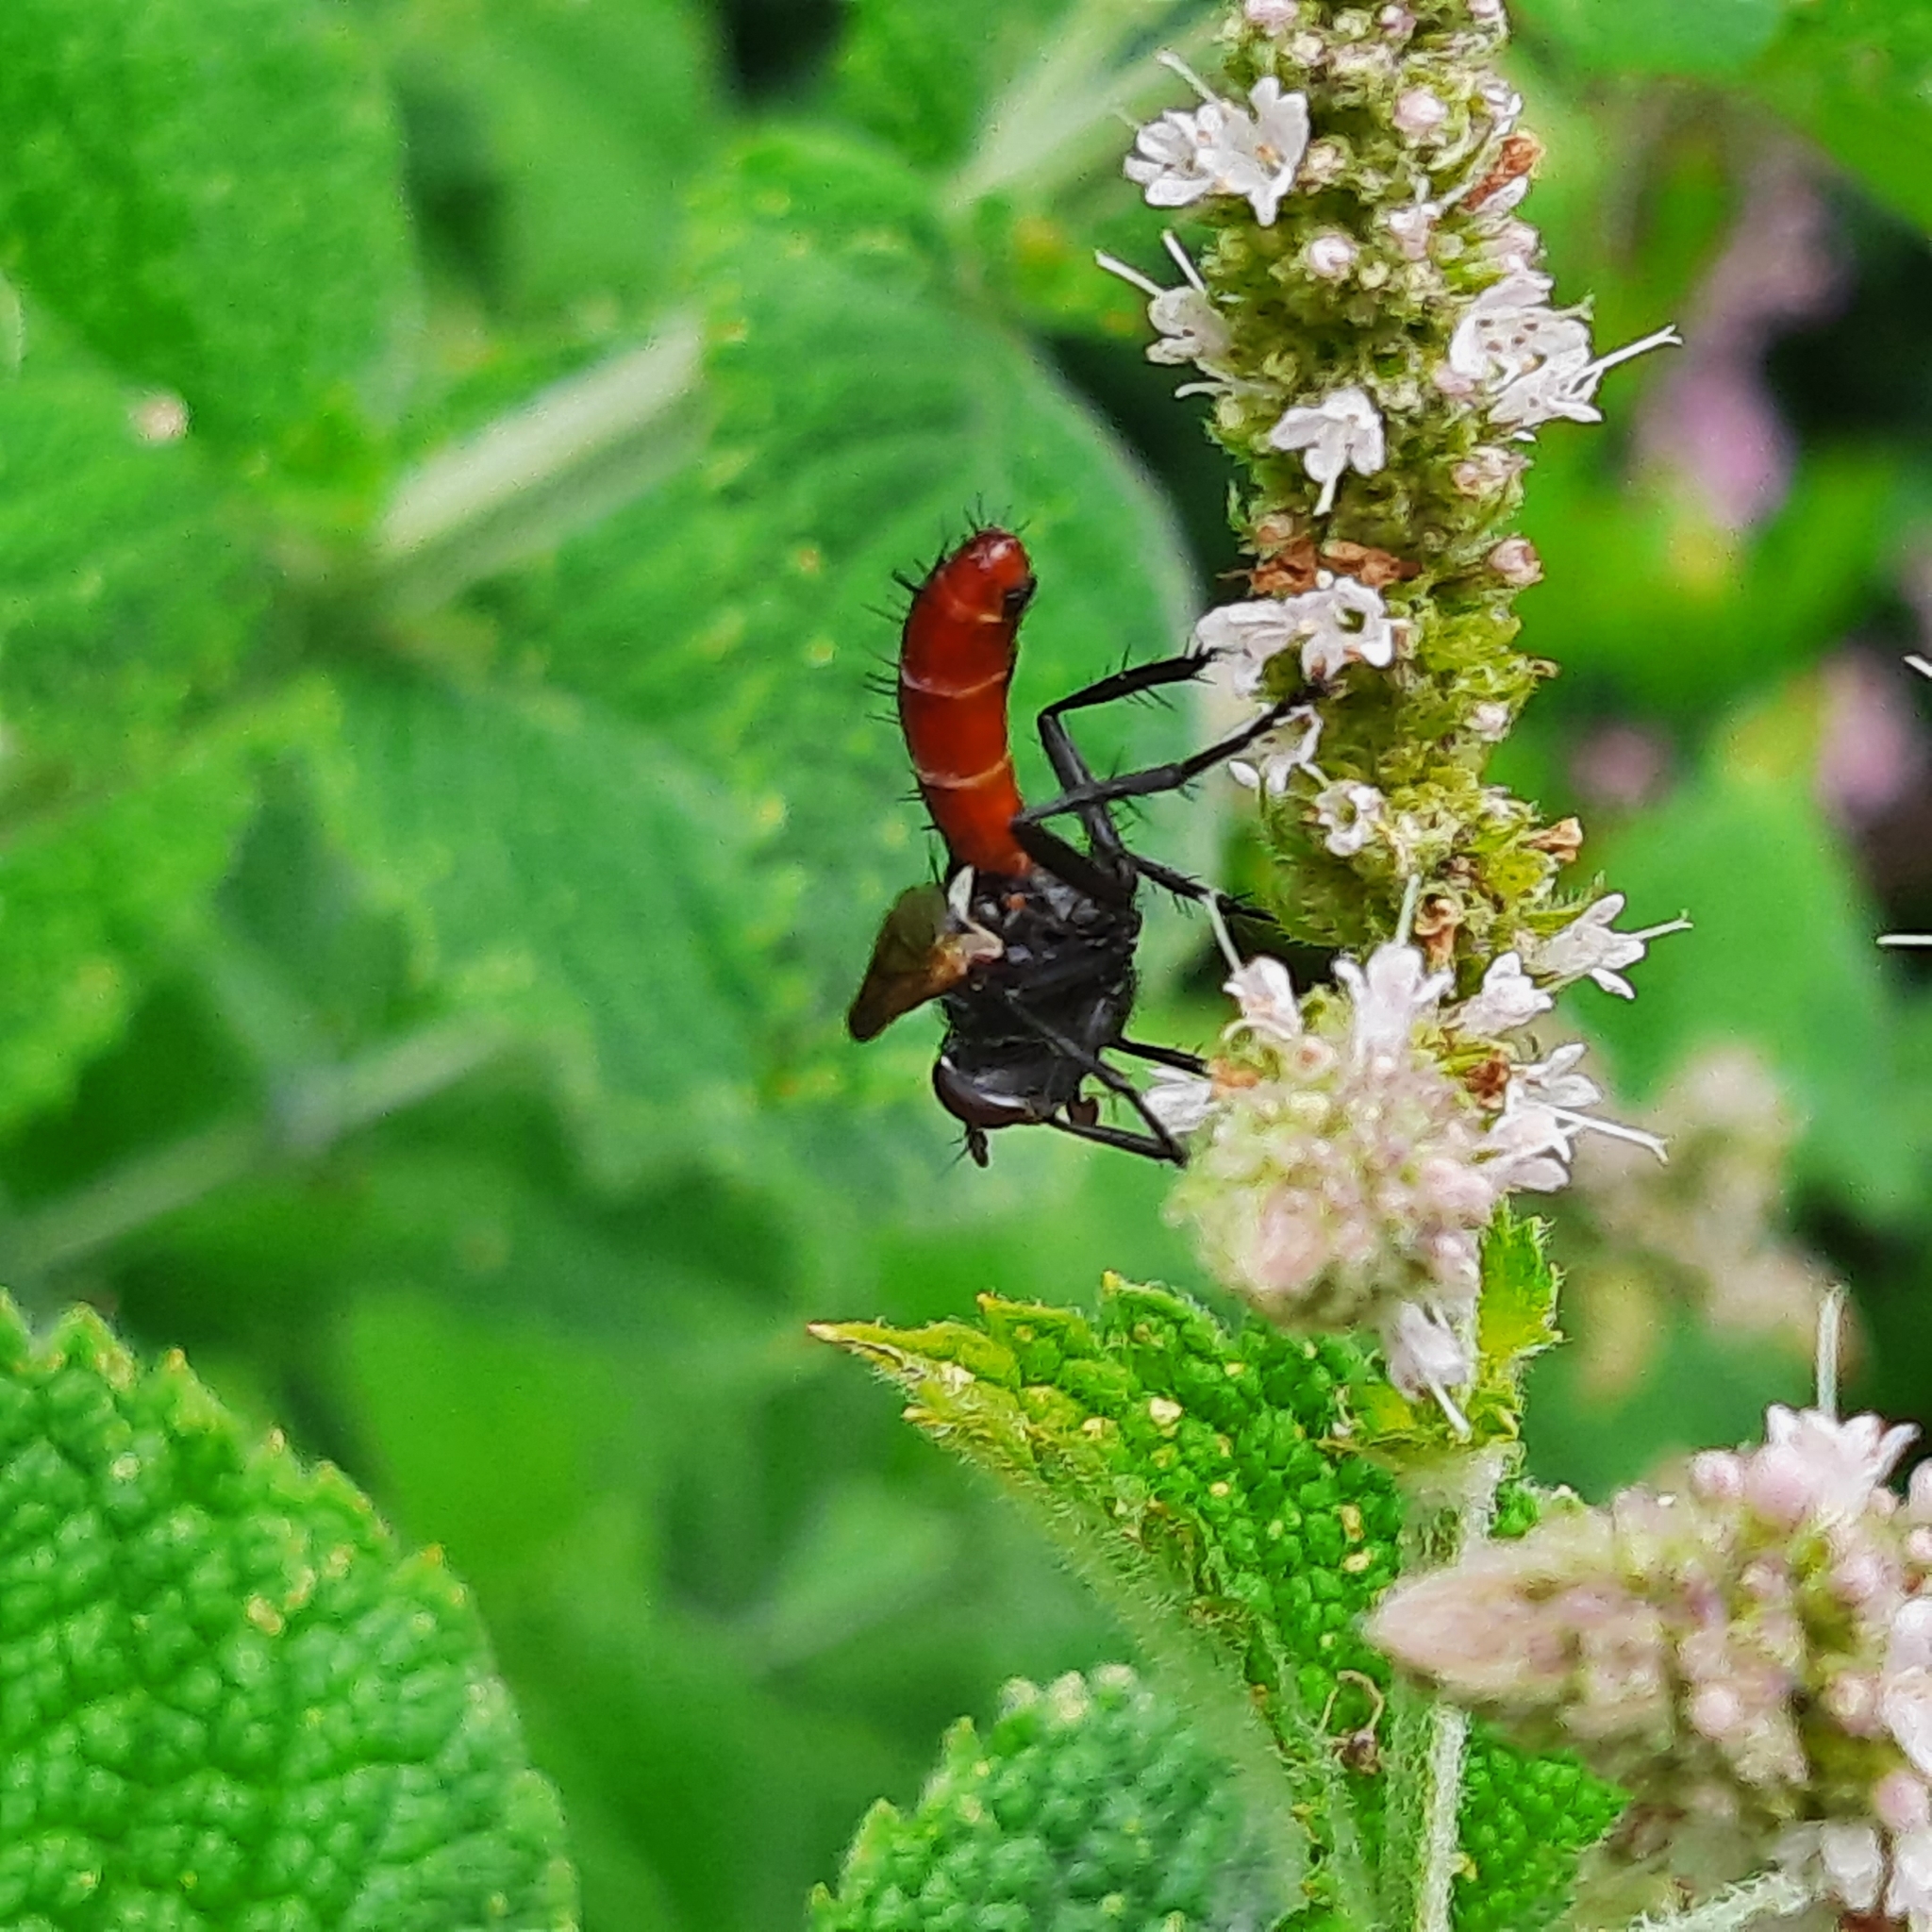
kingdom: Animalia
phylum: Arthropoda
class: Insecta
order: Diptera
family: Tachinidae
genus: Cylindromyia
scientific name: Cylindromyia bicolor
